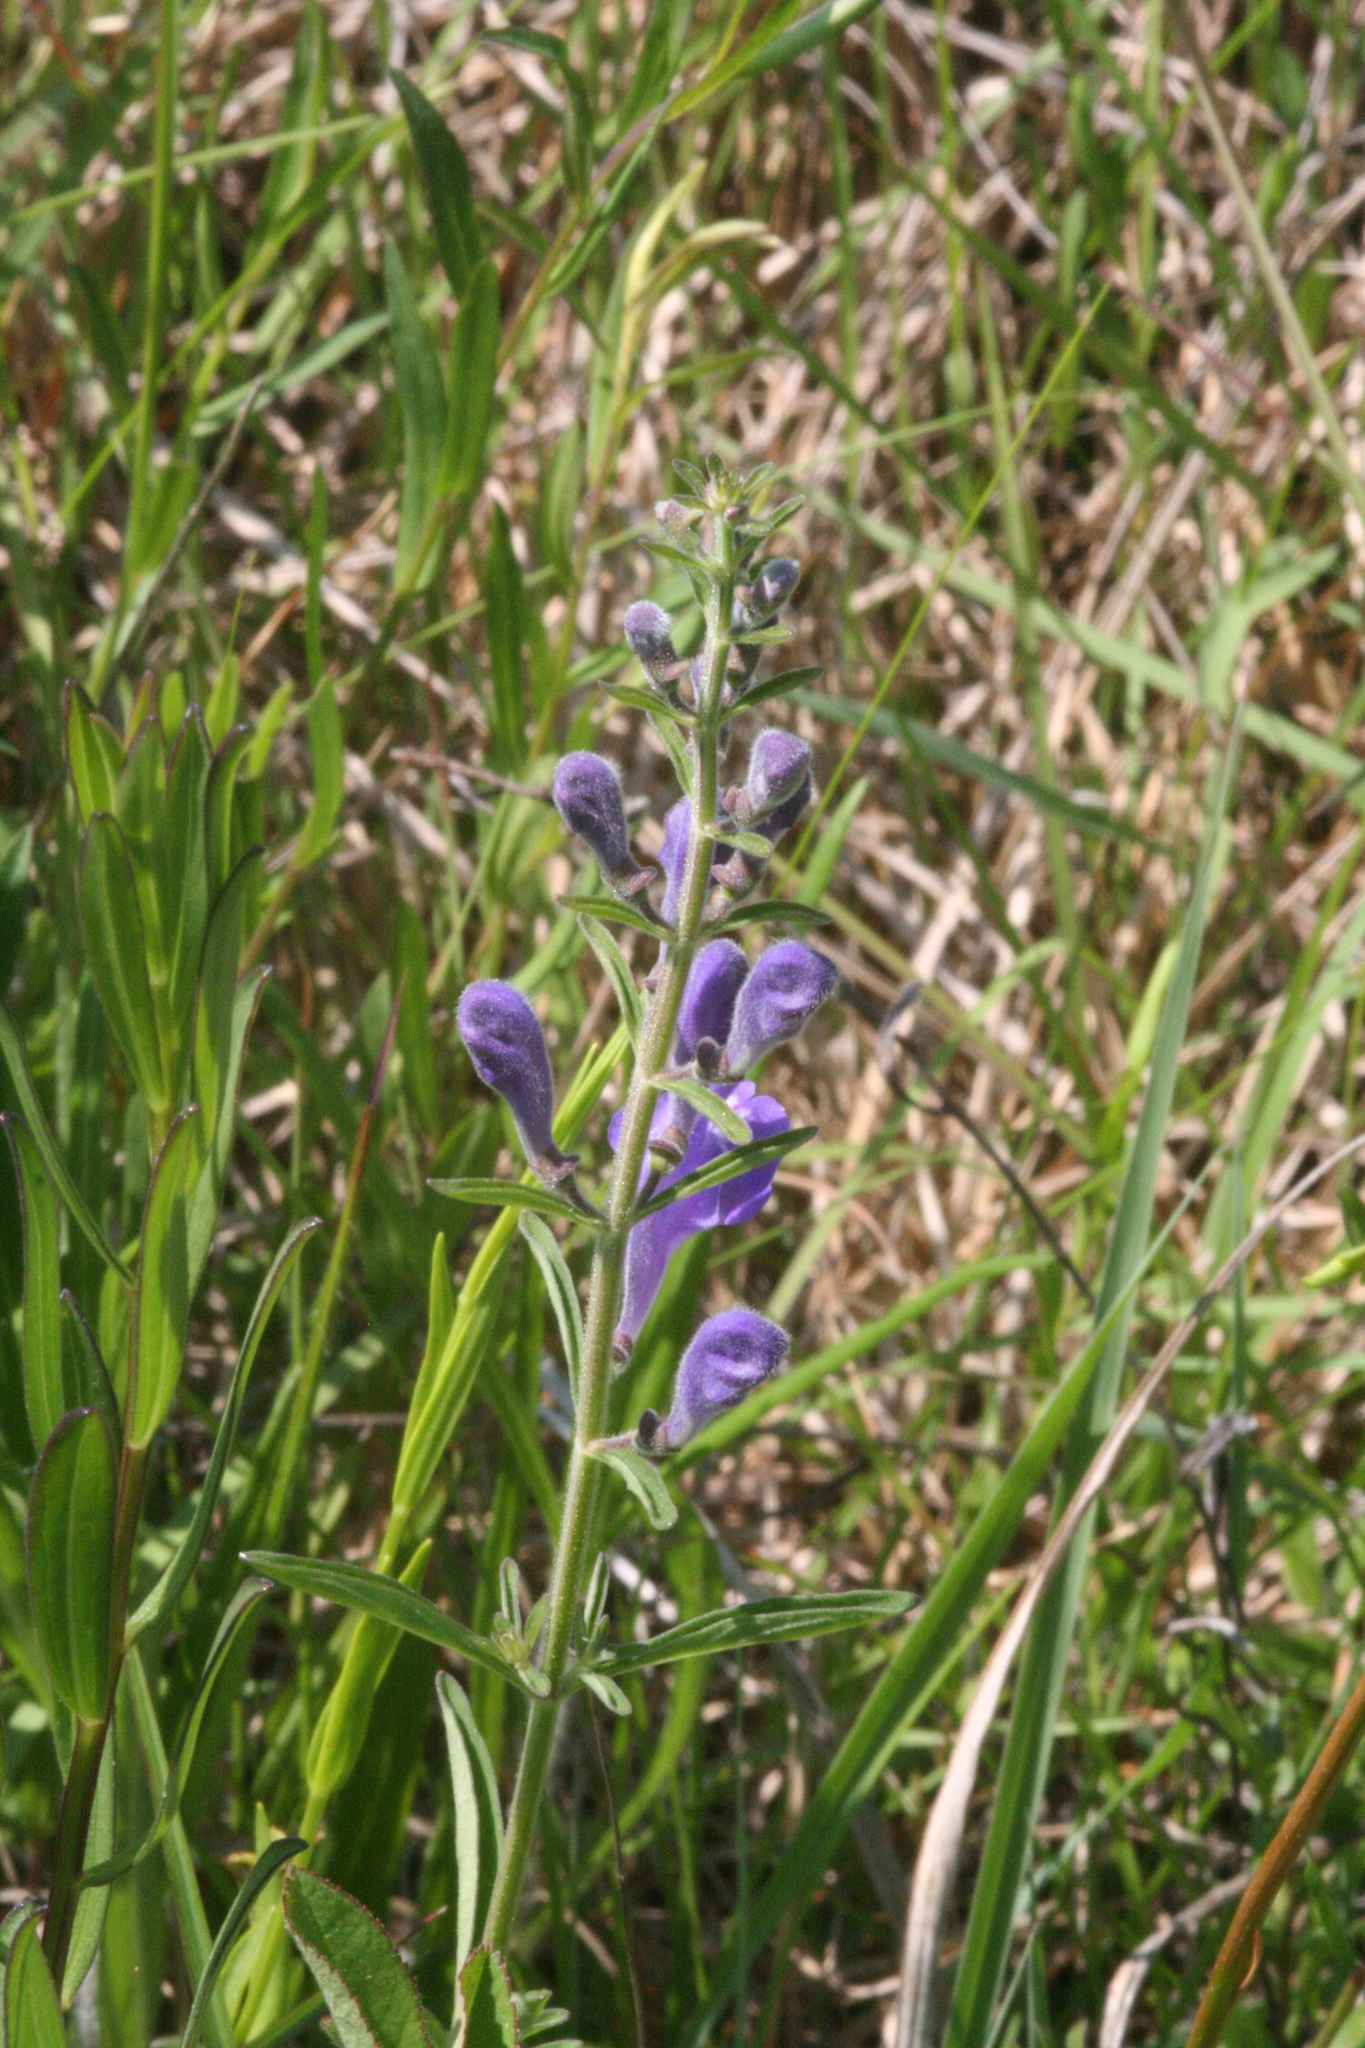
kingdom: Plantae
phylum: Tracheophyta
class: Magnoliopsida
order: Lamiales
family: Lamiaceae
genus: Scutellaria
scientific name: Scutellaria integrifolia
